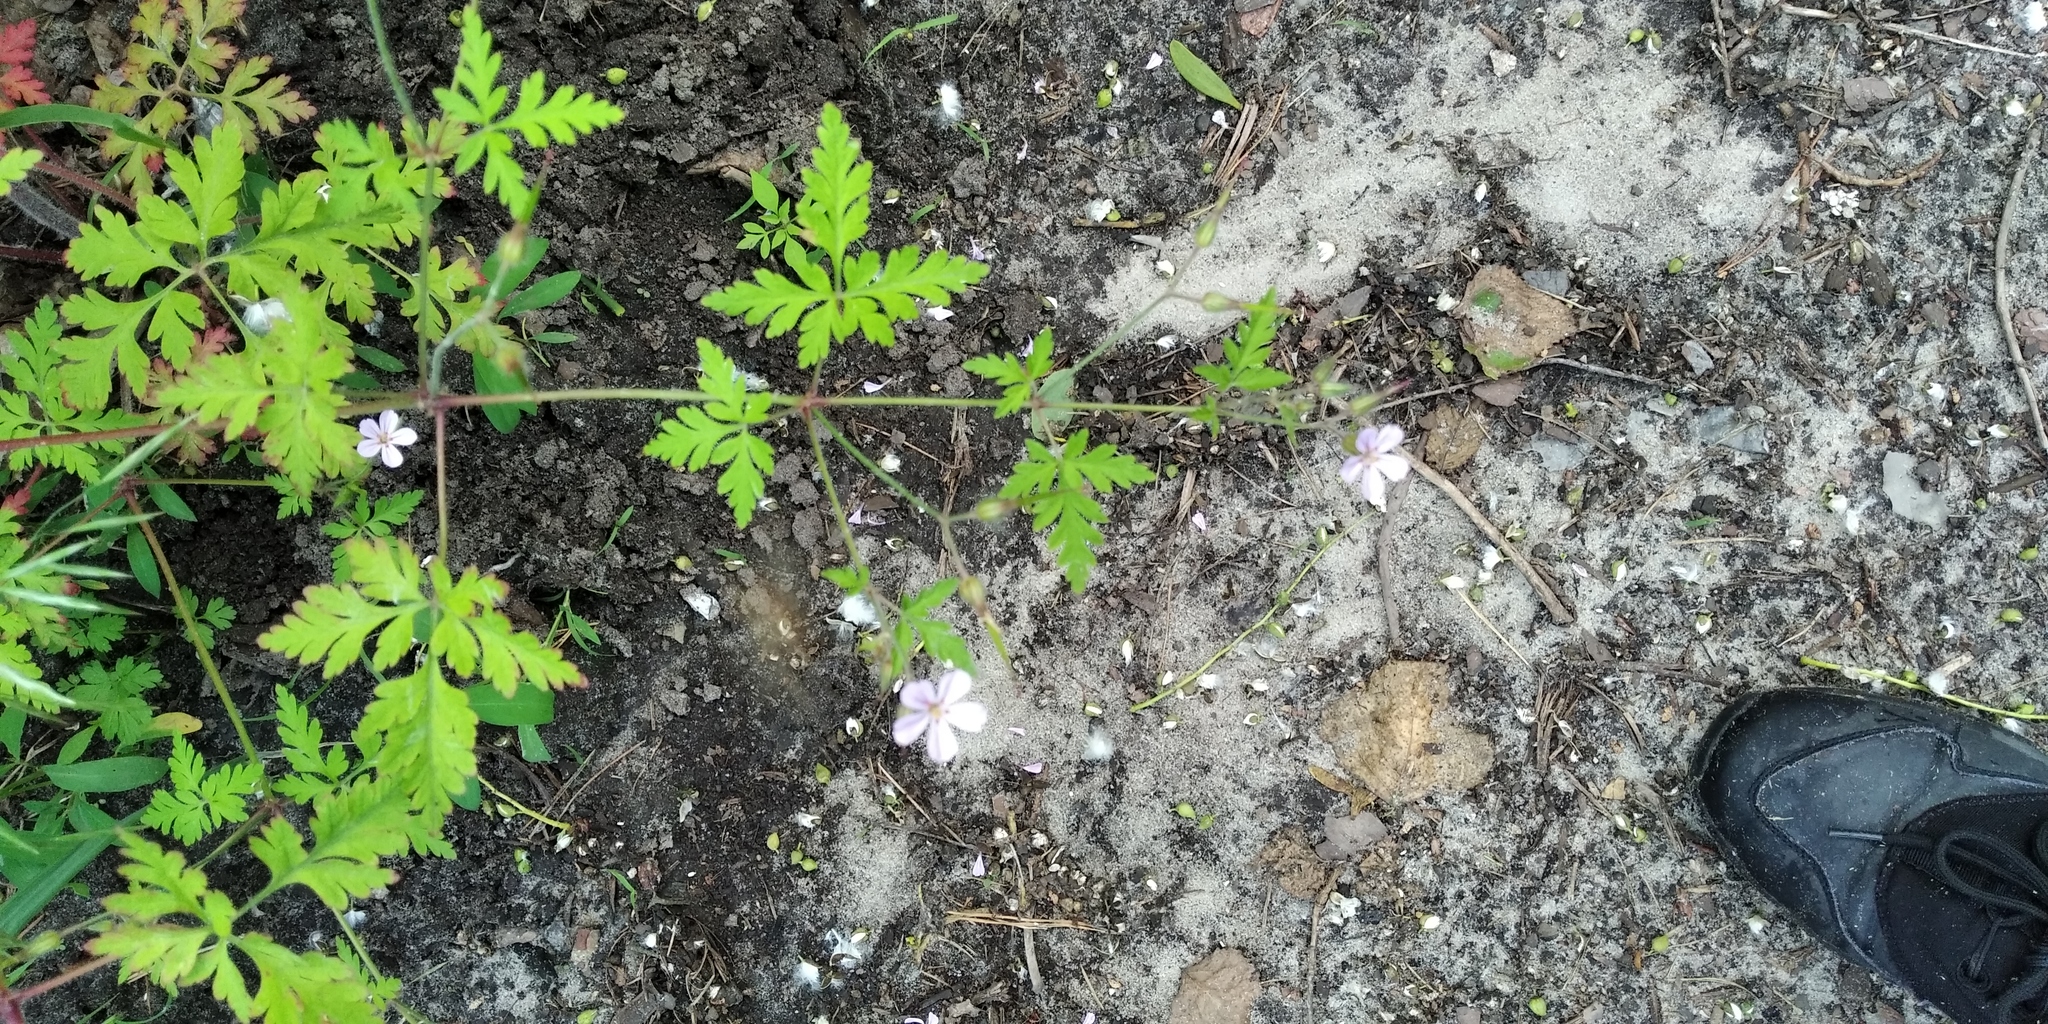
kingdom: Plantae
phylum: Tracheophyta
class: Magnoliopsida
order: Geraniales
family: Geraniaceae
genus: Geranium
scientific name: Geranium robertianum
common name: Herb-robert
